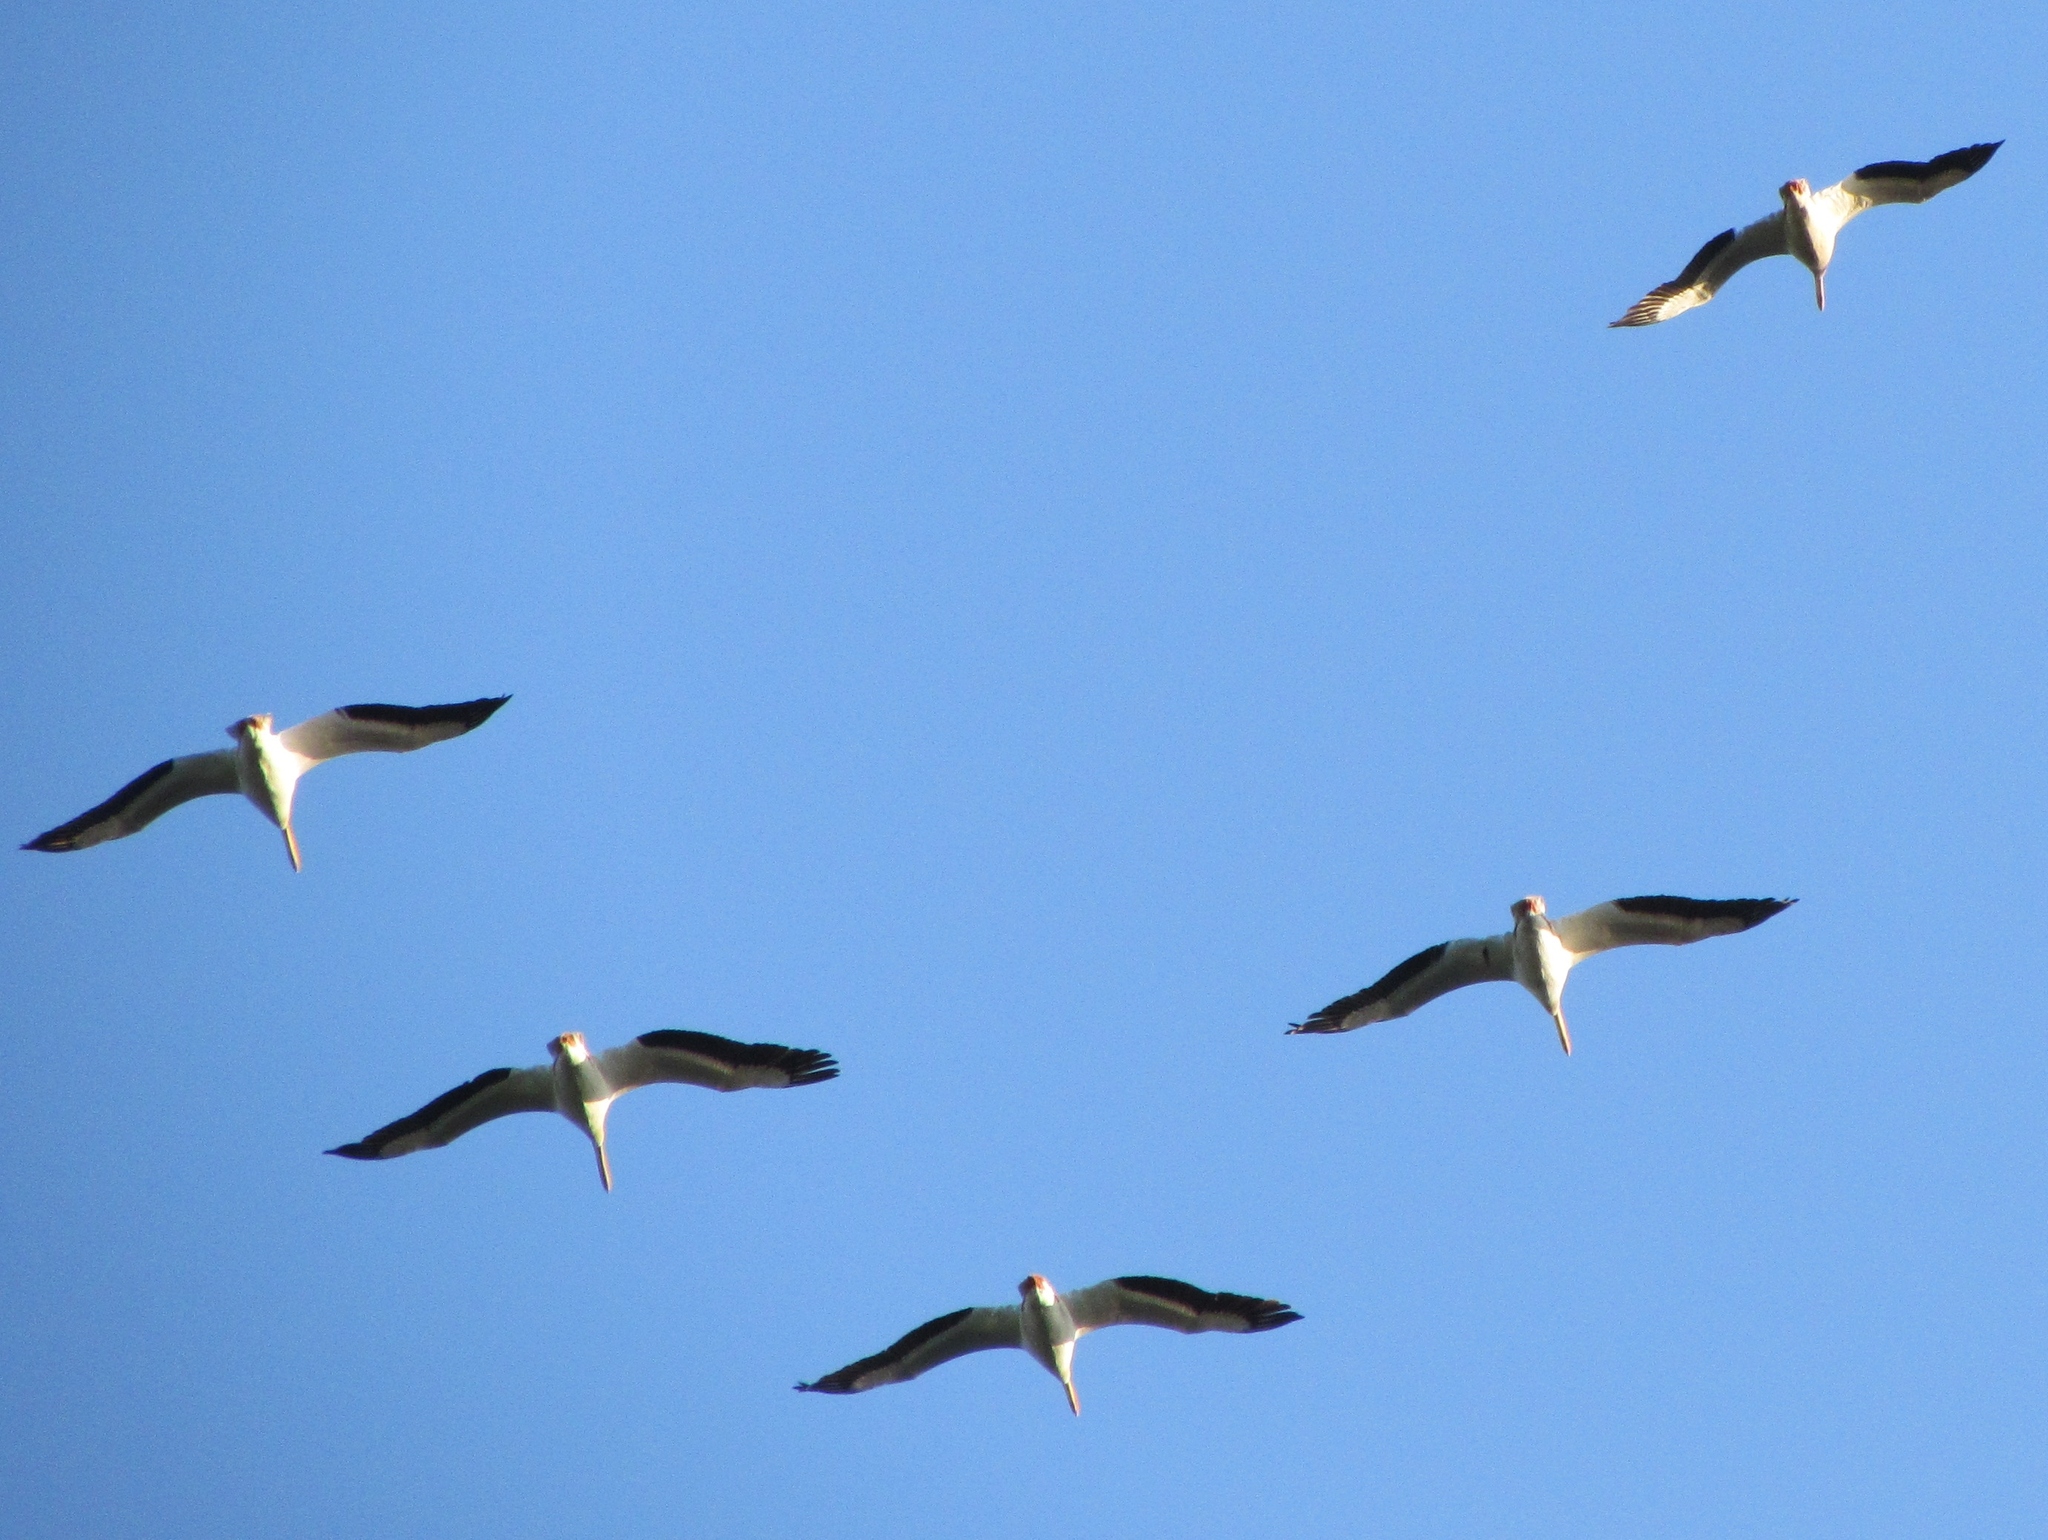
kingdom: Animalia
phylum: Chordata
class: Aves
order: Pelecaniformes
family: Pelecanidae
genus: Pelecanus
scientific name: Pelecanus erythrorhynchos
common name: American white pelican
